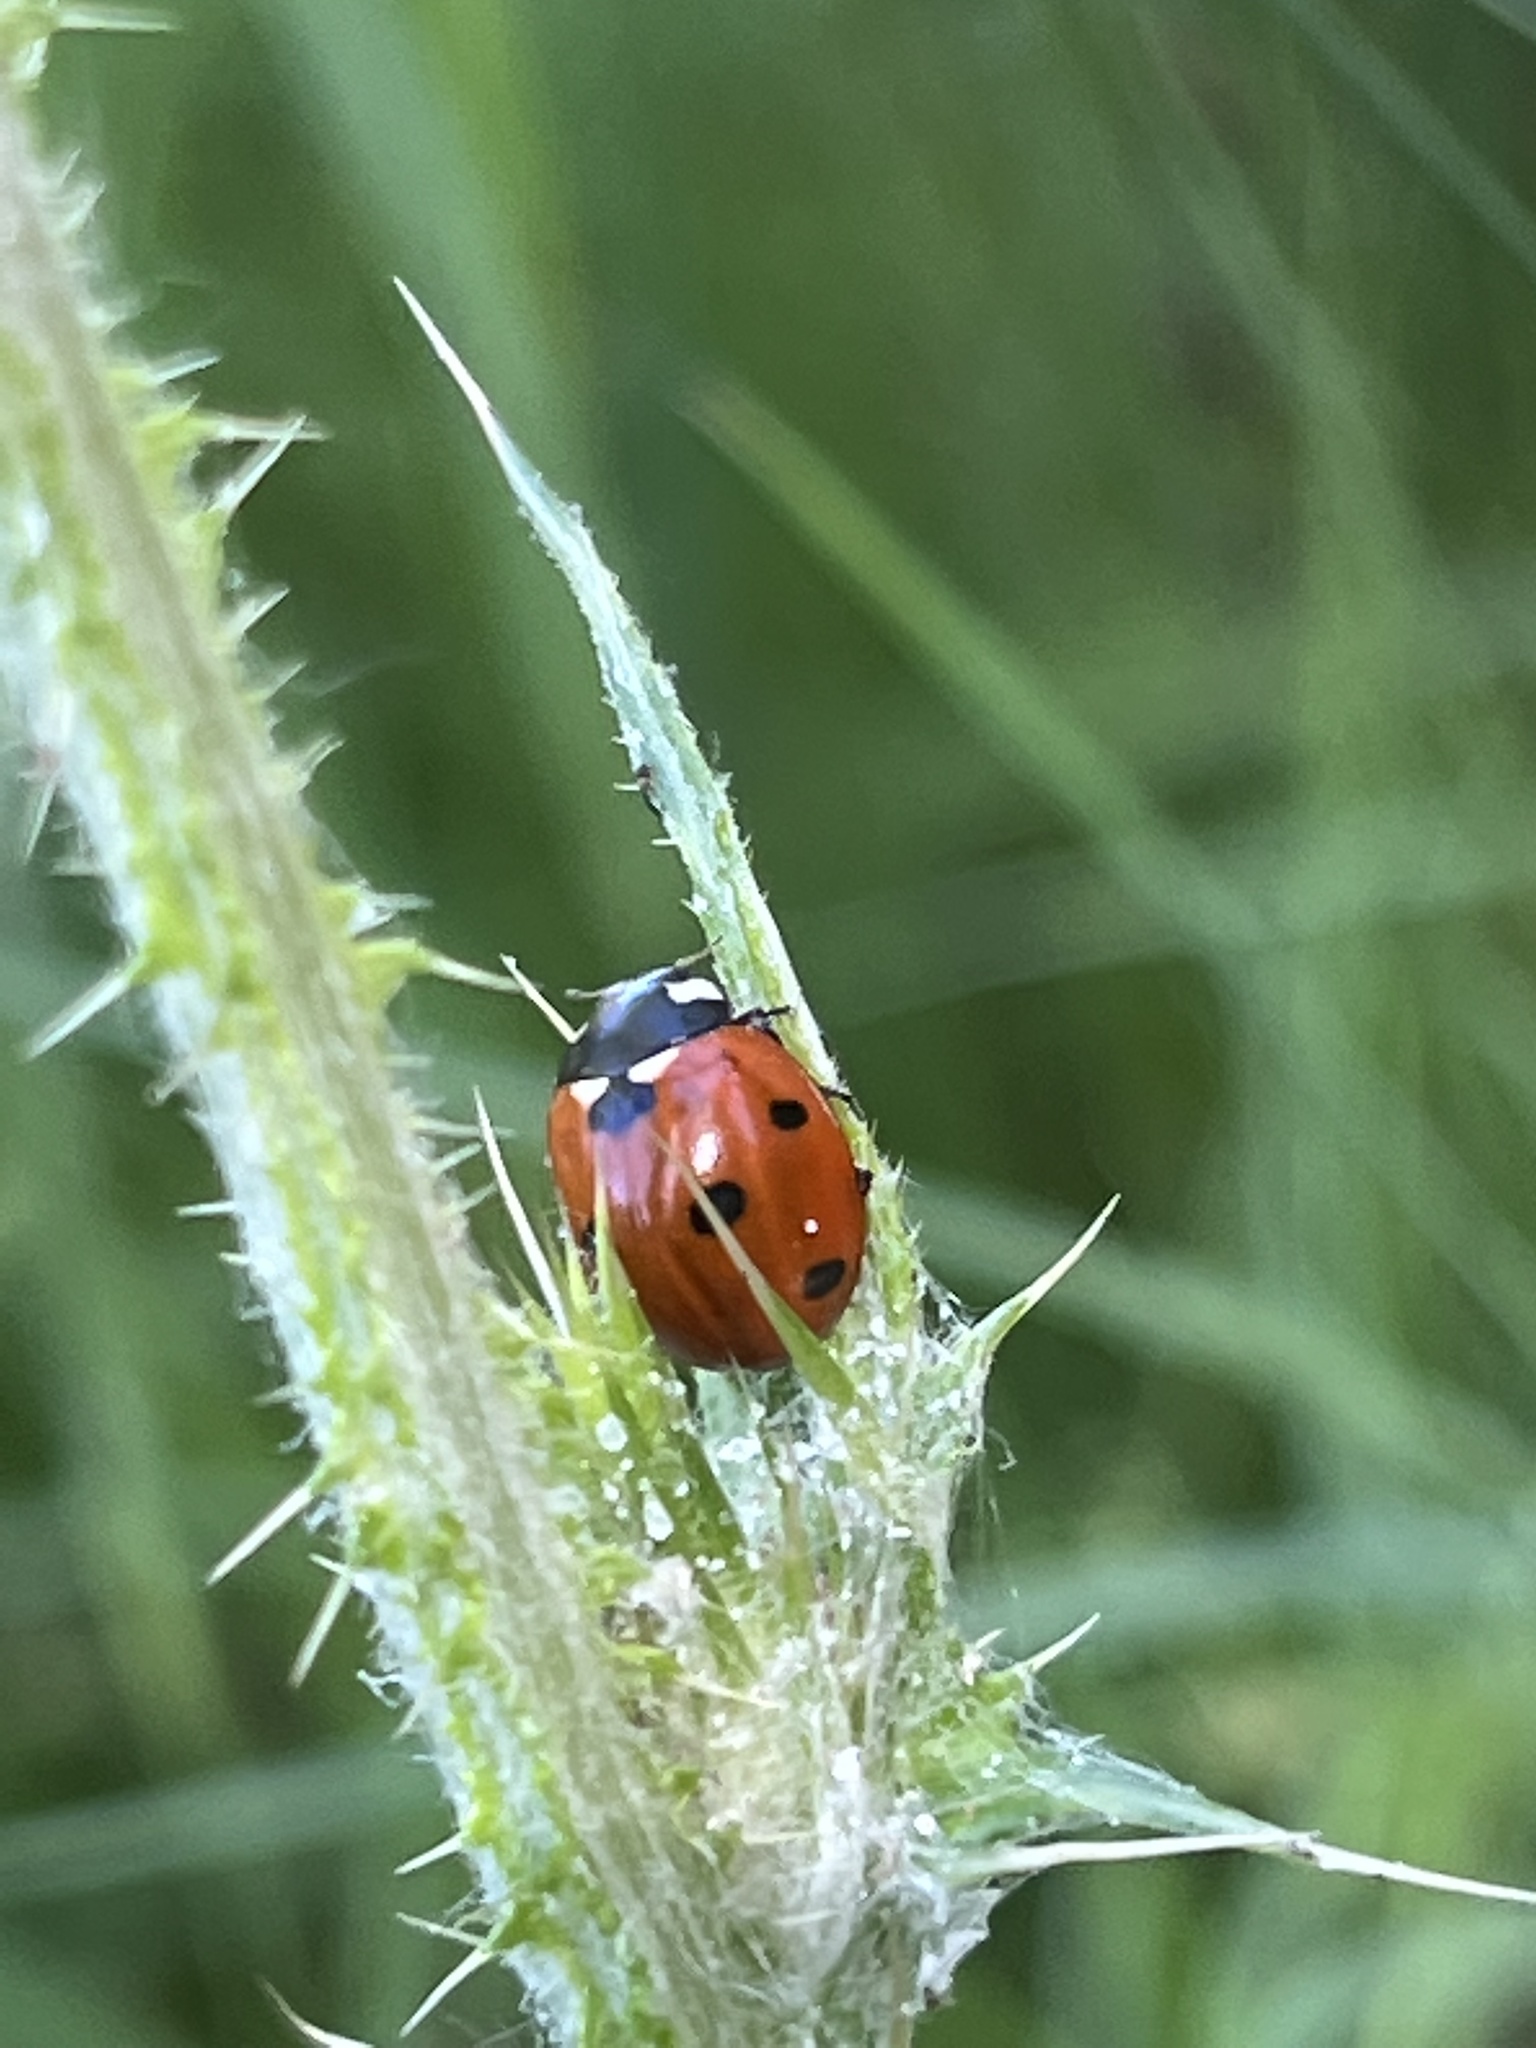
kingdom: Animalia
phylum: Arthropoda
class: Insecta
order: Coleoptera
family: Coccinellidae
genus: Coccinella
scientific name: Coccinella septempunctata
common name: Sevenspotted lady beetle
